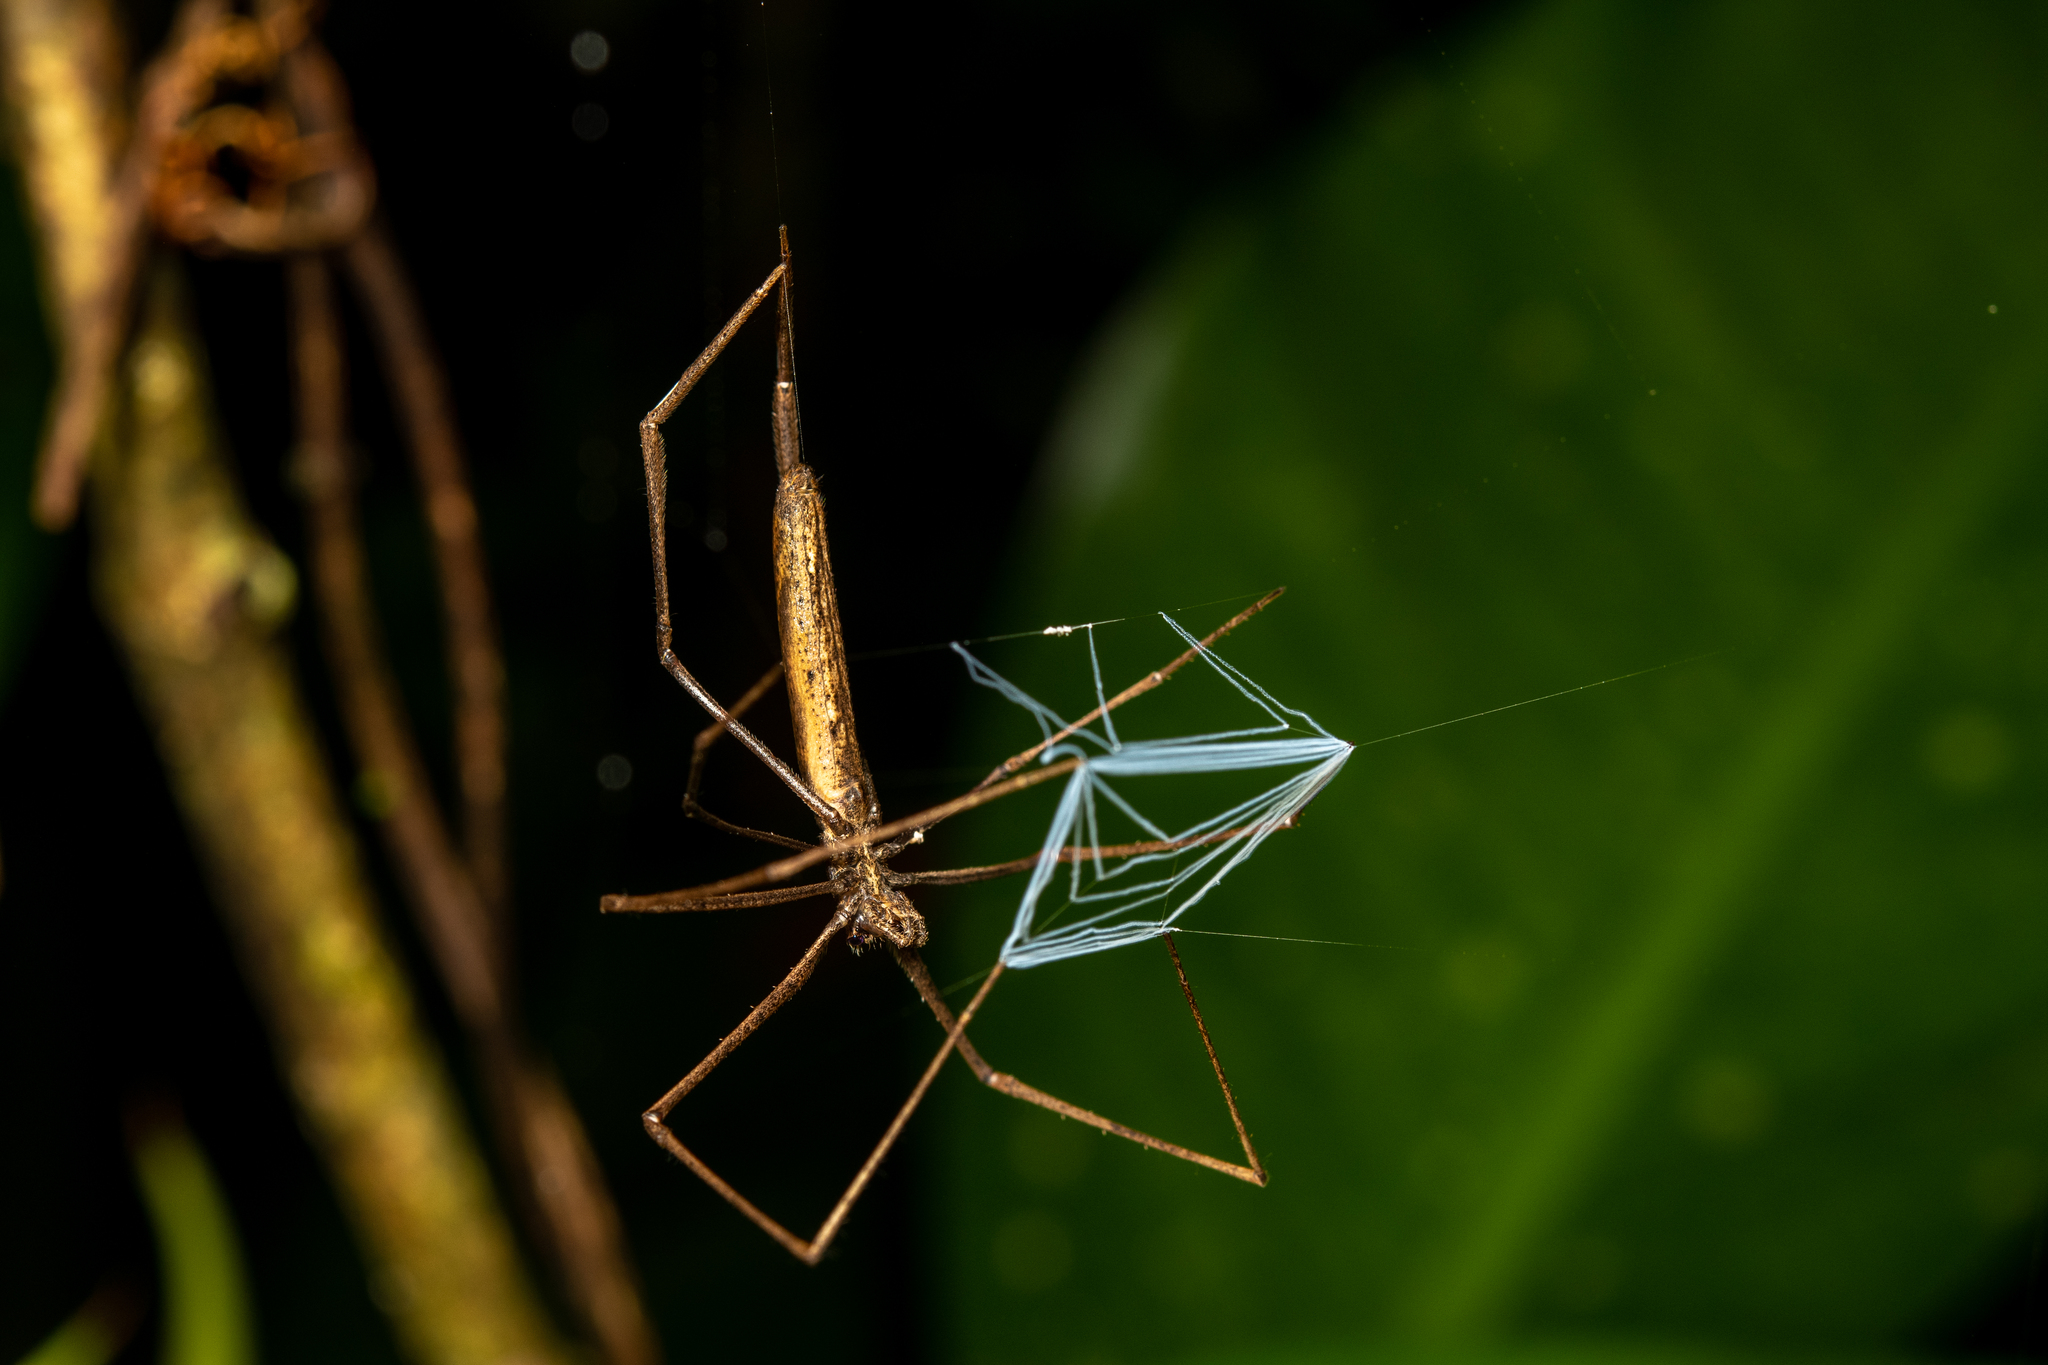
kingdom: Animalia
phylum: Arthropoda
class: Arachnida
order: Araneae
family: Deinopidae
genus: Deinopis
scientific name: Deinopis longipes
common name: Ogre faced spiders
